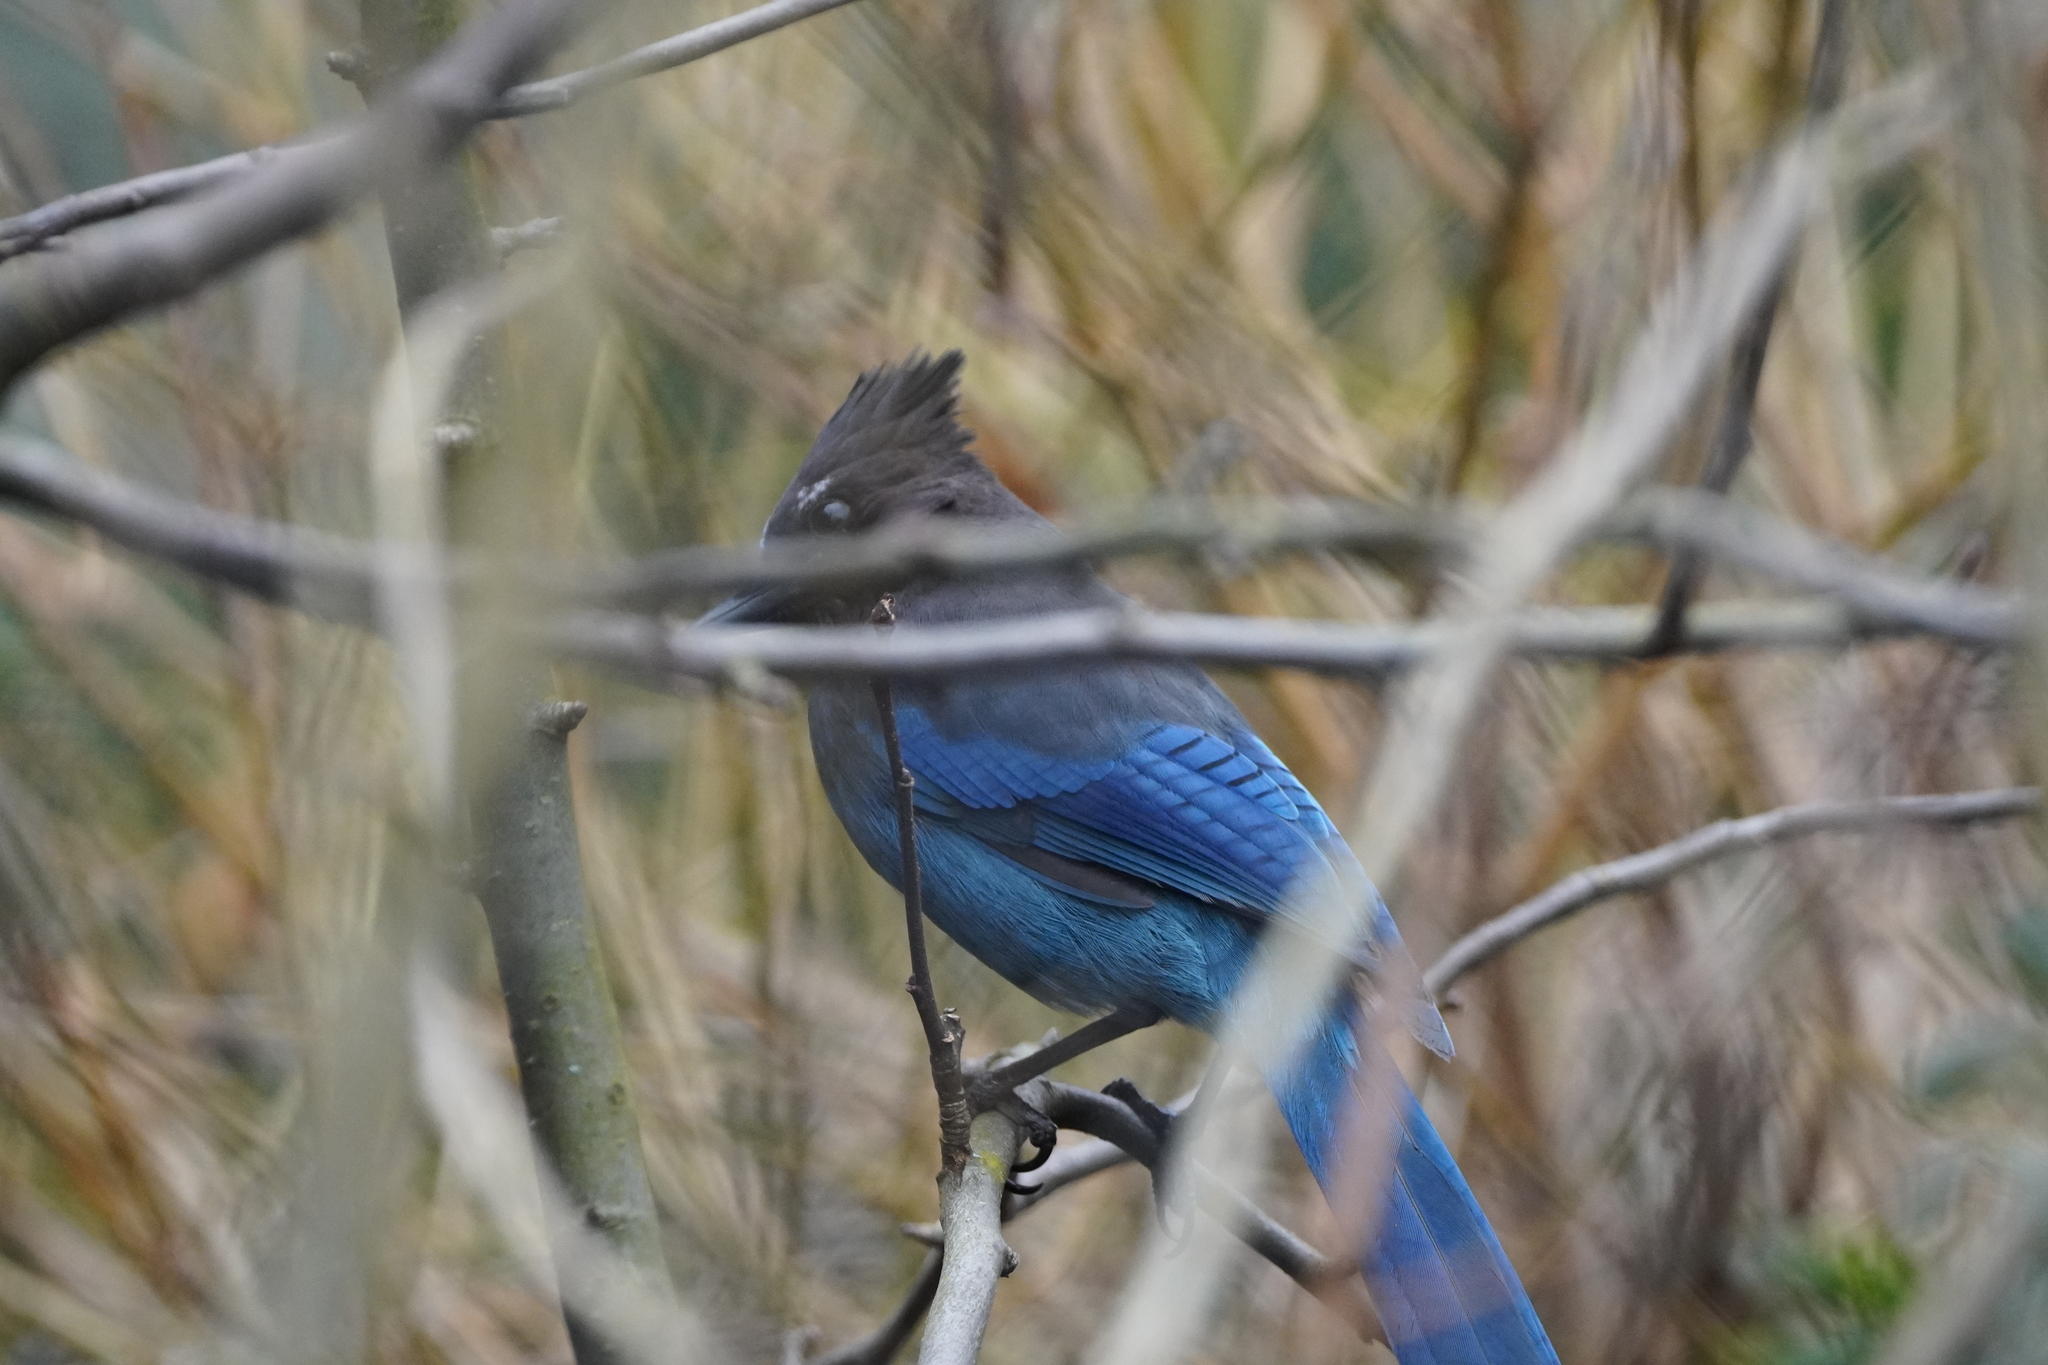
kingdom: Animalia
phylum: Chordata
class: Aves
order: Passeriformes
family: Corvidae
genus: Cyanocitta
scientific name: Cyanocitta stelleri
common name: Steller's jay
